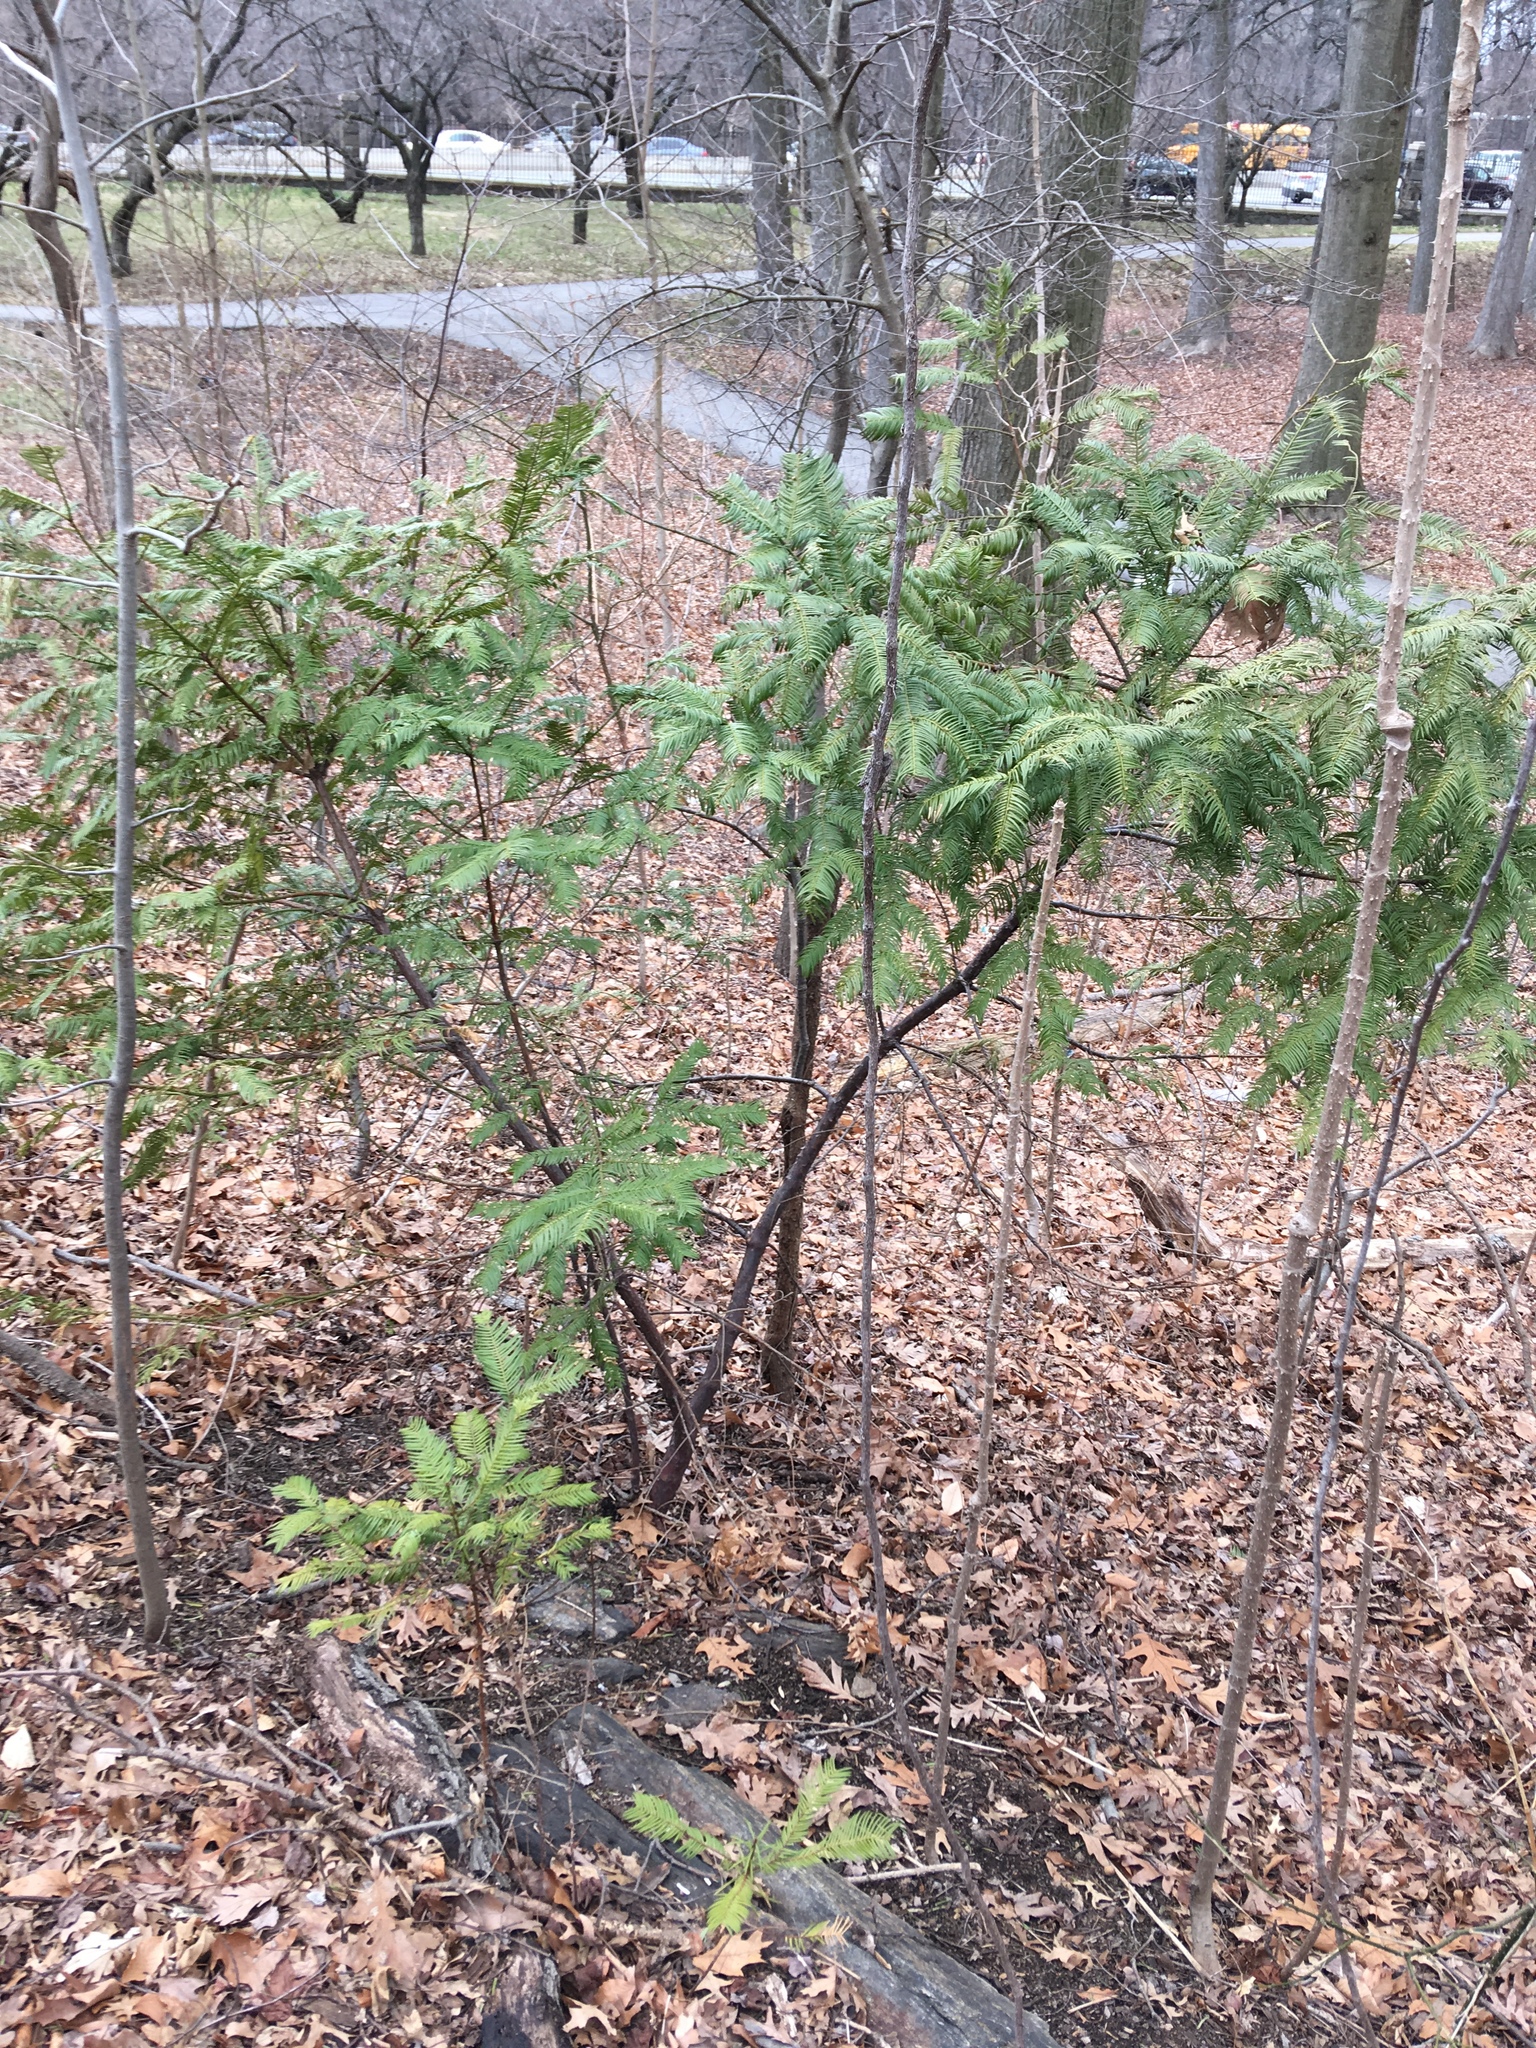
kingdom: Plantae
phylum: Tracheophyta
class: Pinopsida
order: Pinales
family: Cephalotaxaceae
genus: Cephalotaxus
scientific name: Cephalotaxus harringtonia
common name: Japanese plum-yew
